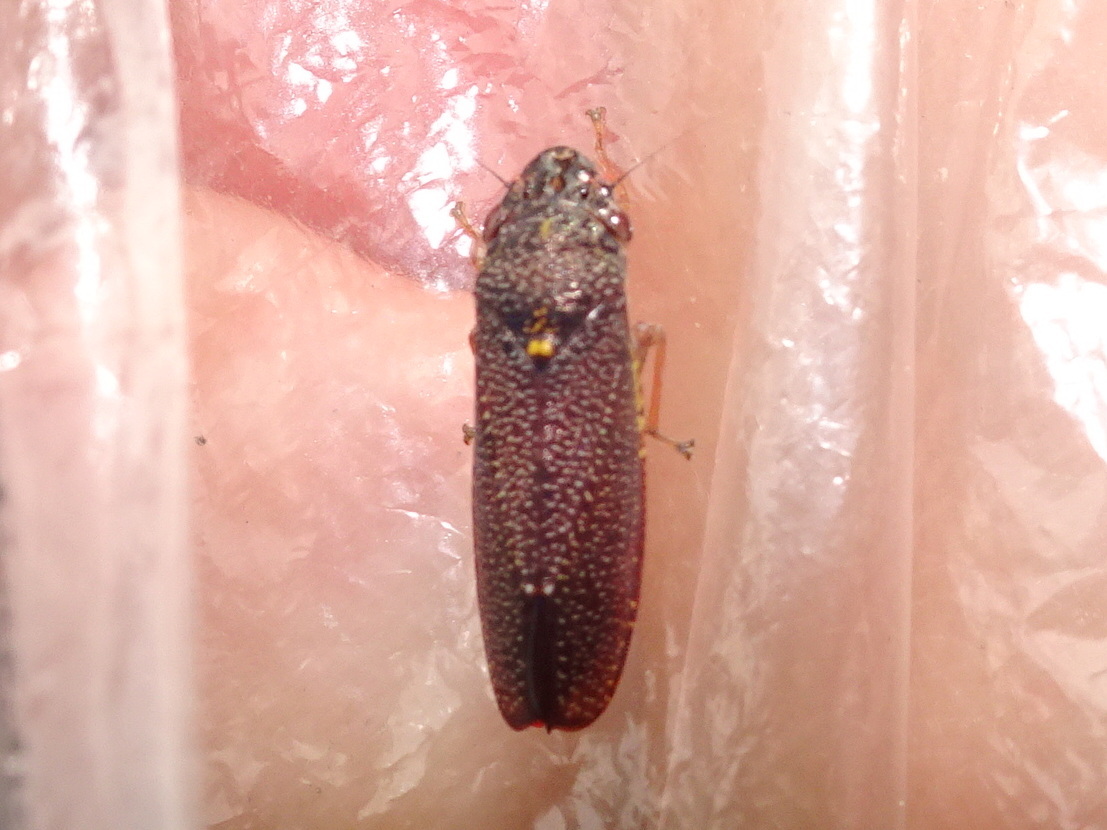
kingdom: Animalia
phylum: Arthropoda
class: Insecta
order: Hemiptera
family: Cicadellidae
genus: Paraulacizes
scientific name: Paraulacizes irrorata
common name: Speckled sharpshooter
